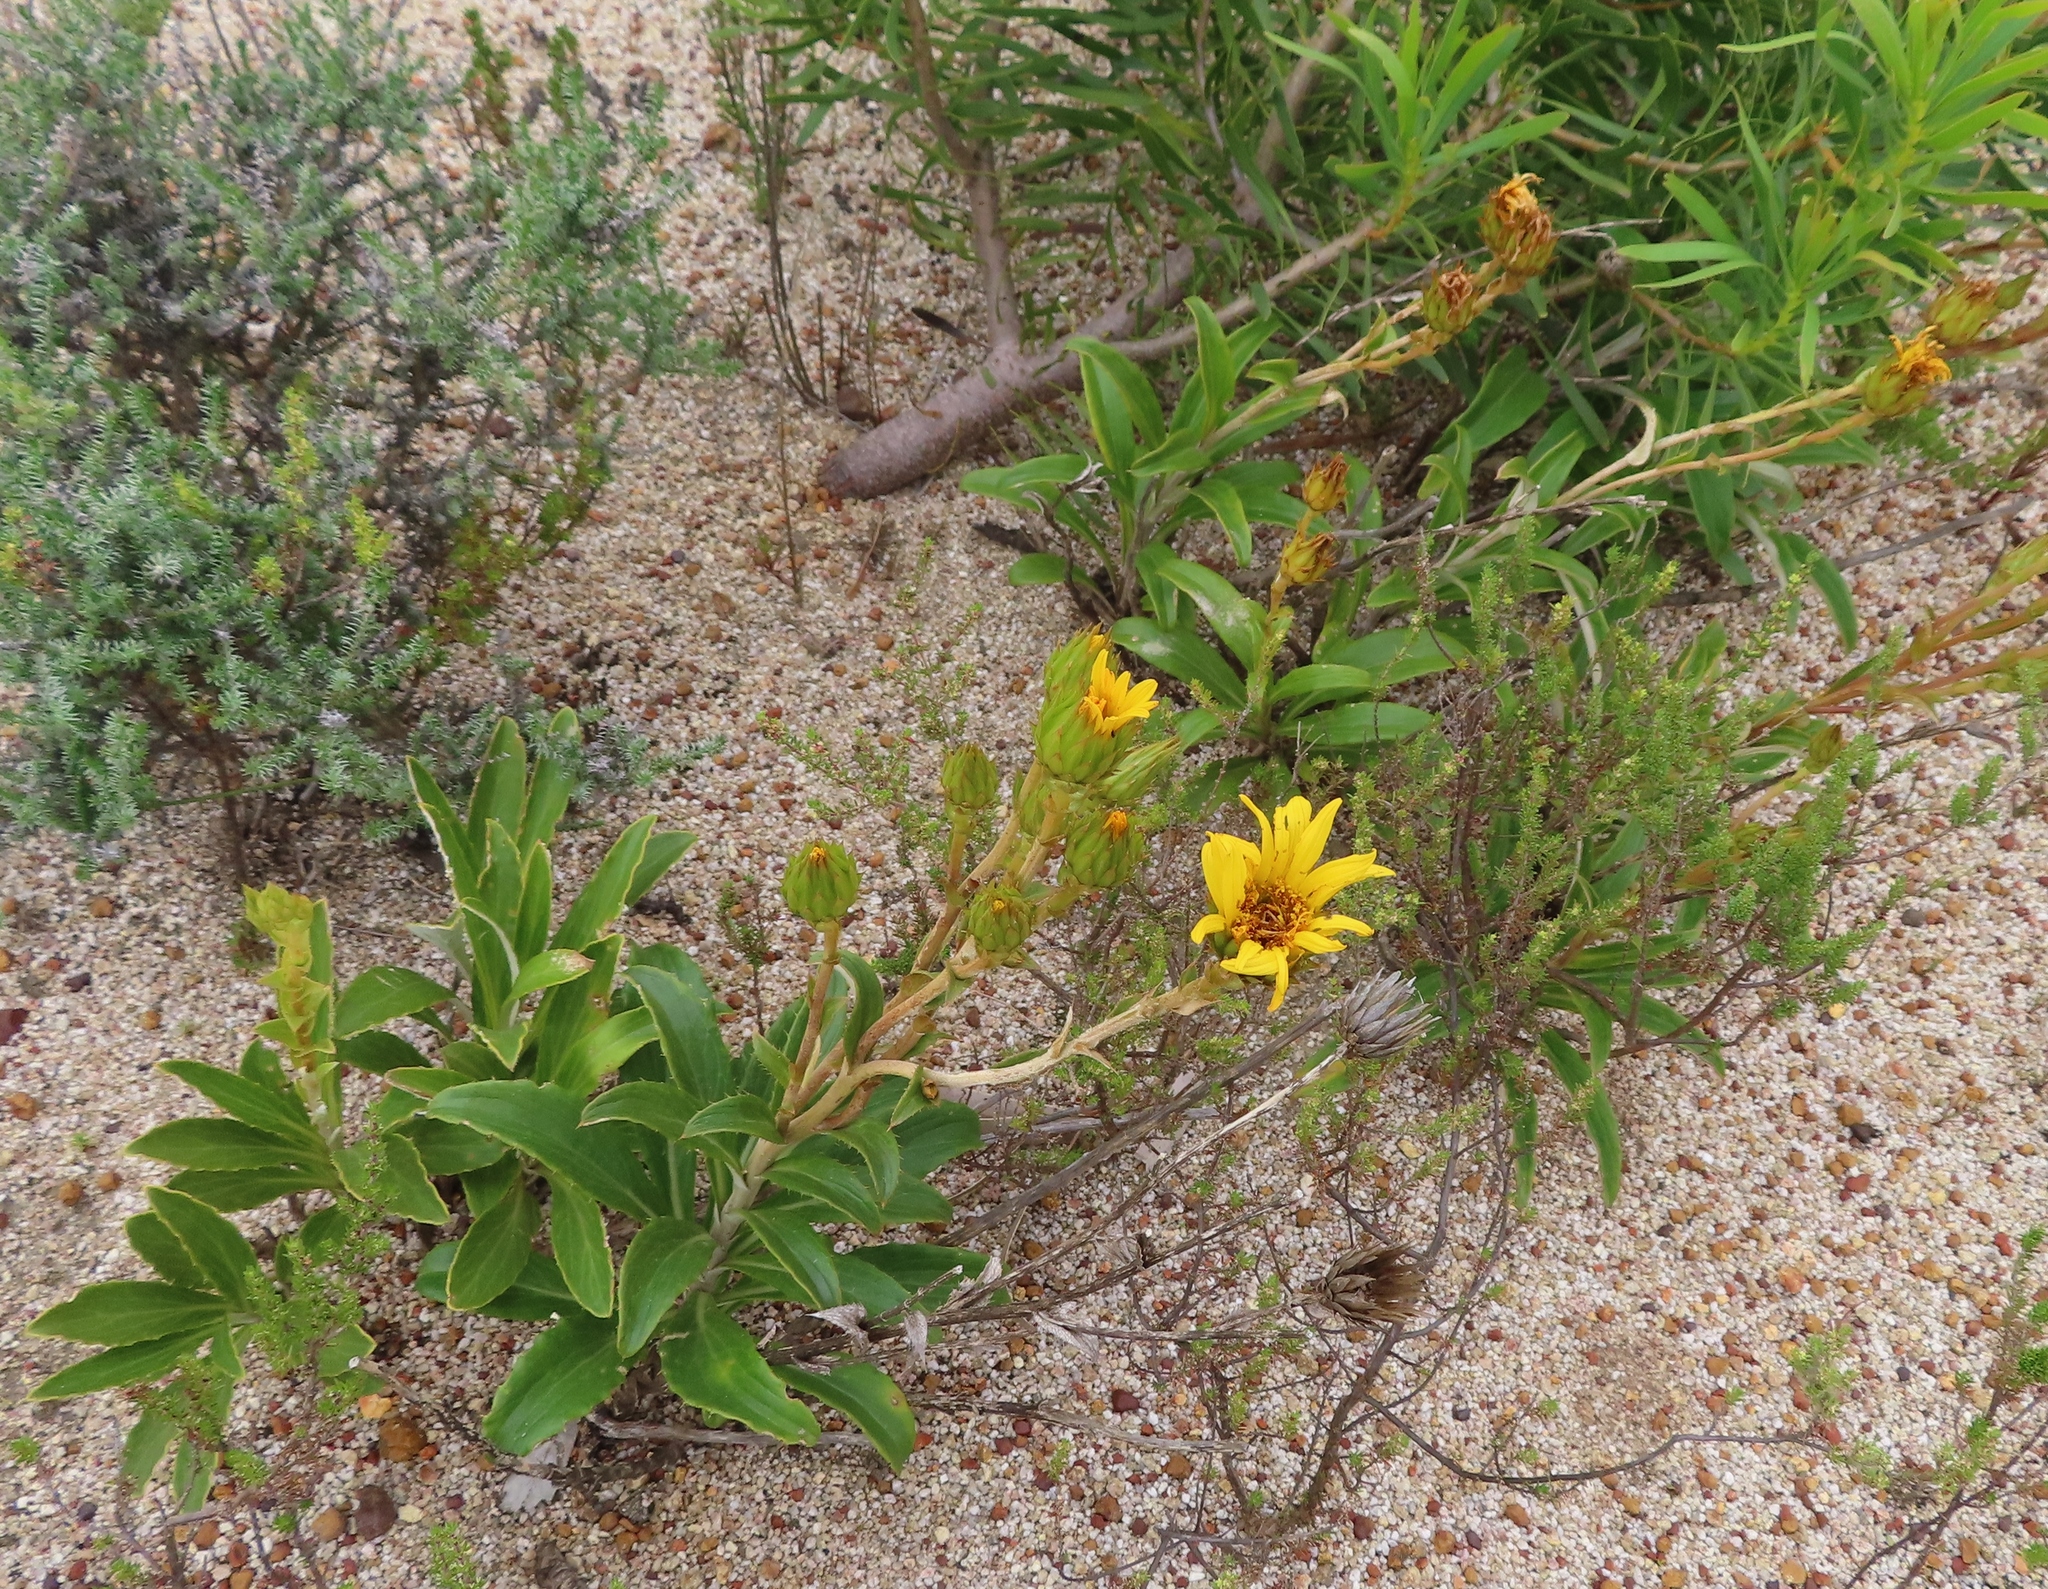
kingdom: Plantae
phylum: Tracheophyta
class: Magnoliopsida
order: Asterales
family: Asteraceae
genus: Berkheya
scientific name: Berkheya herbacea
